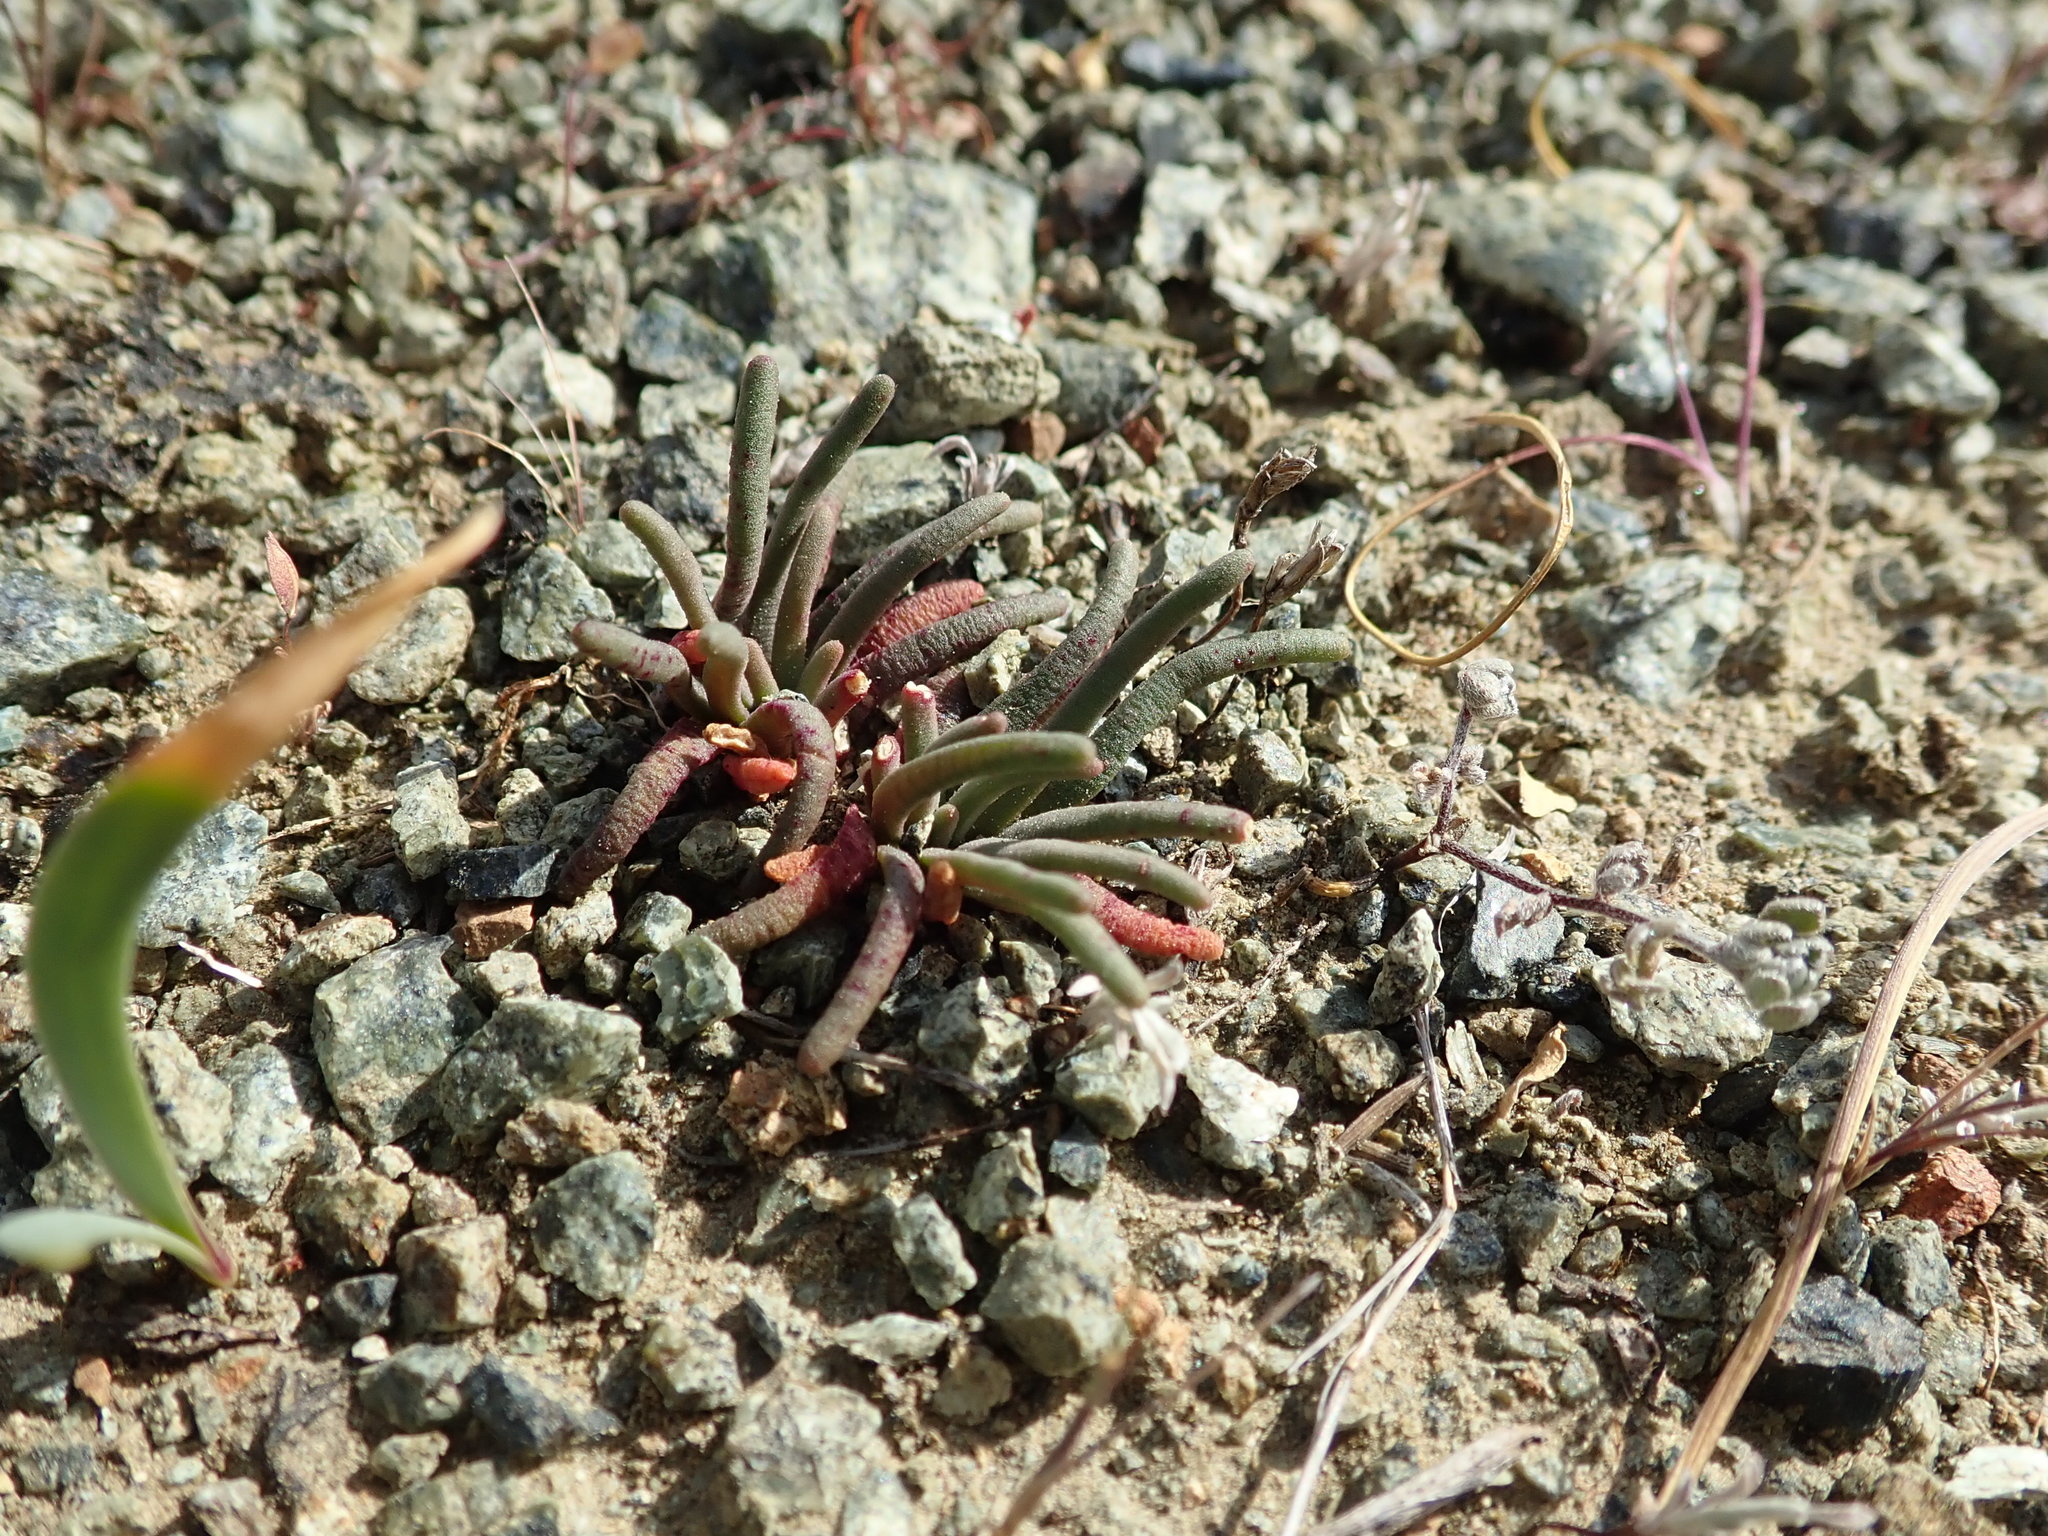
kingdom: Plantae
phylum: Tracheophyta
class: Magnoliopsida
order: Caryophyllales
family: Montiaceae
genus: Lewisia
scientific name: Lewisia rediviva
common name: Bitter-root
